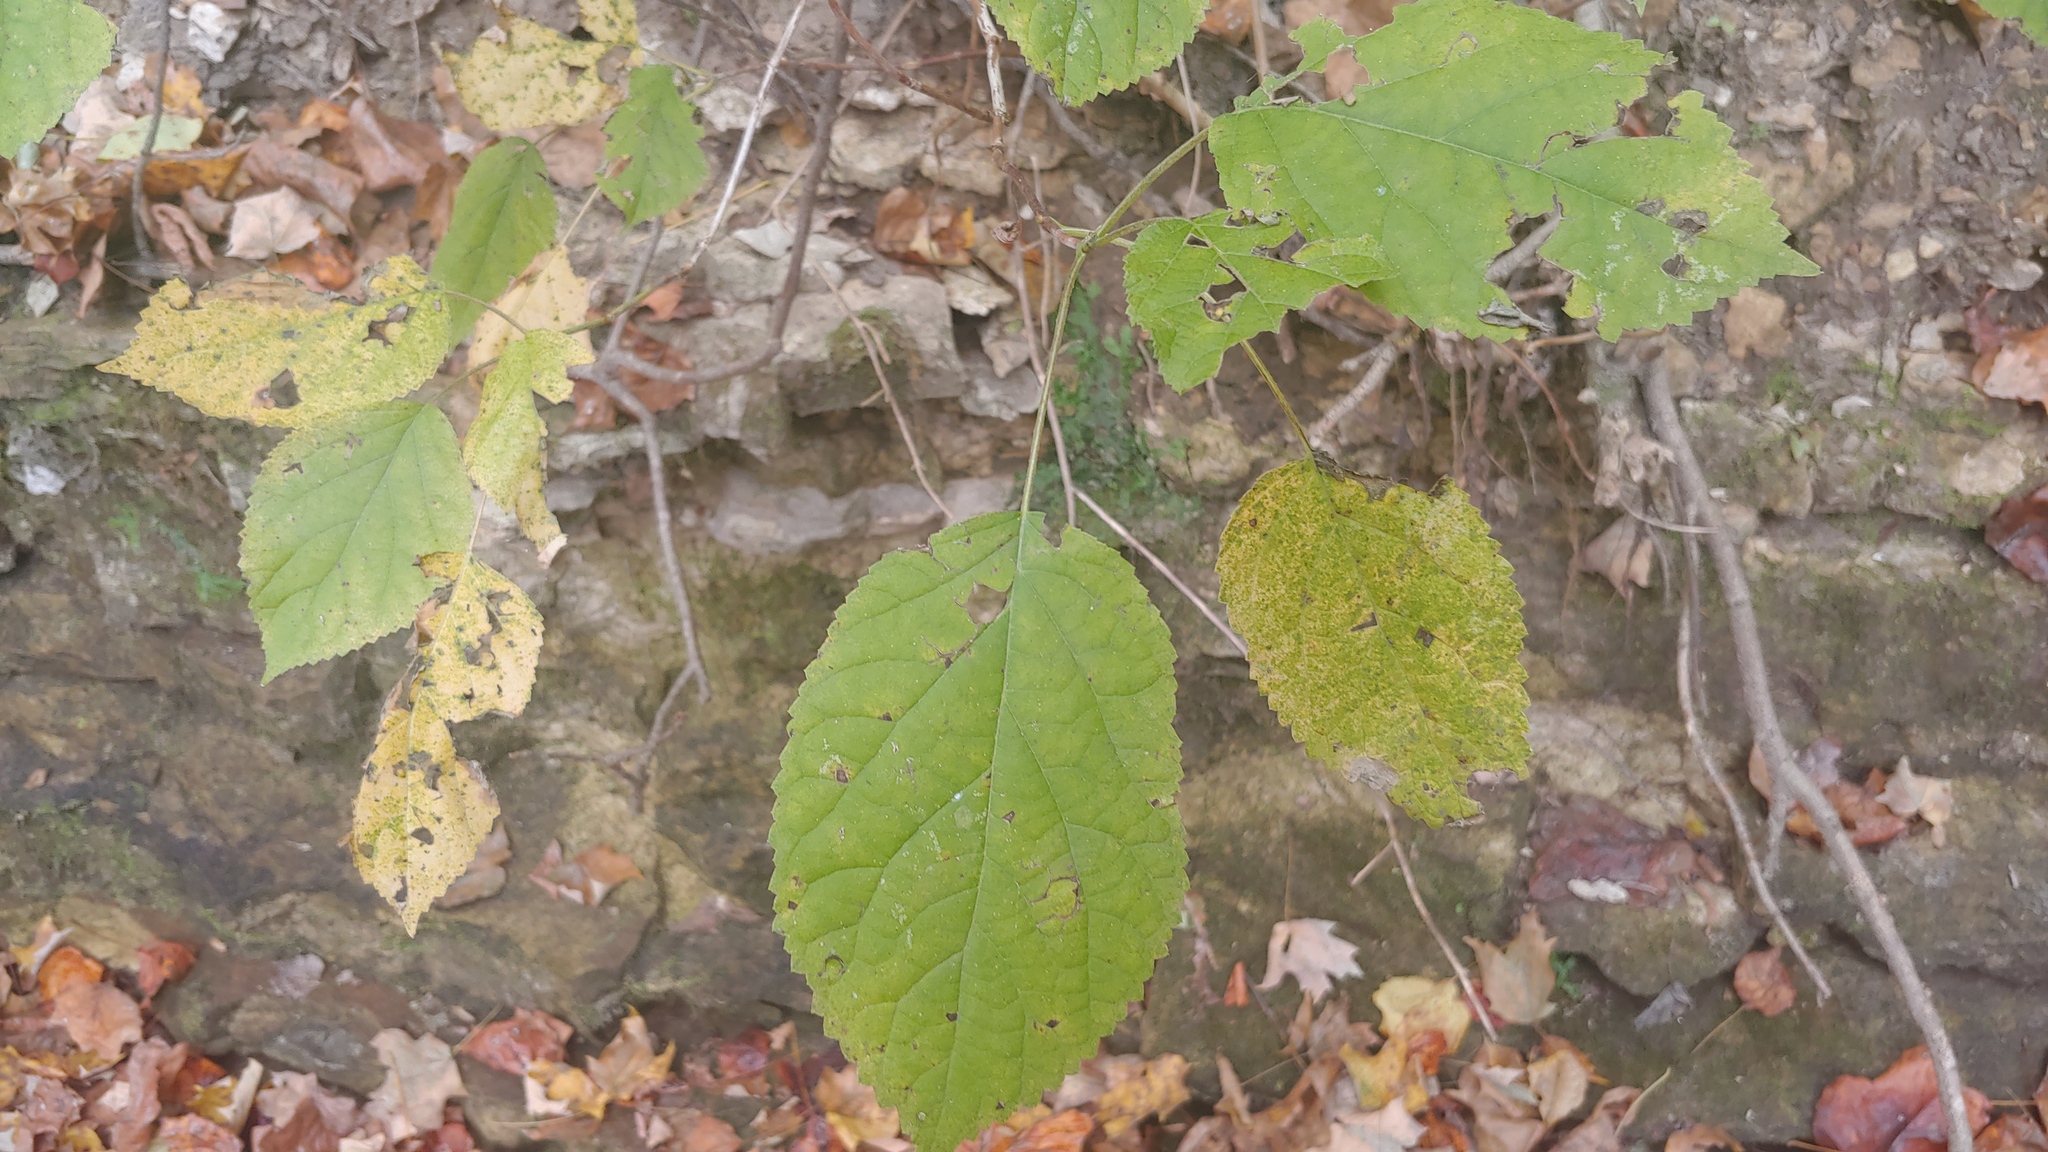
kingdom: Plantae
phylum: Tracheophyta
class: Magnoliopsida
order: Cornales
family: Hydrangeaceae
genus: Hydrangea
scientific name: Hydrangea arborescens
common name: Sevenbark
